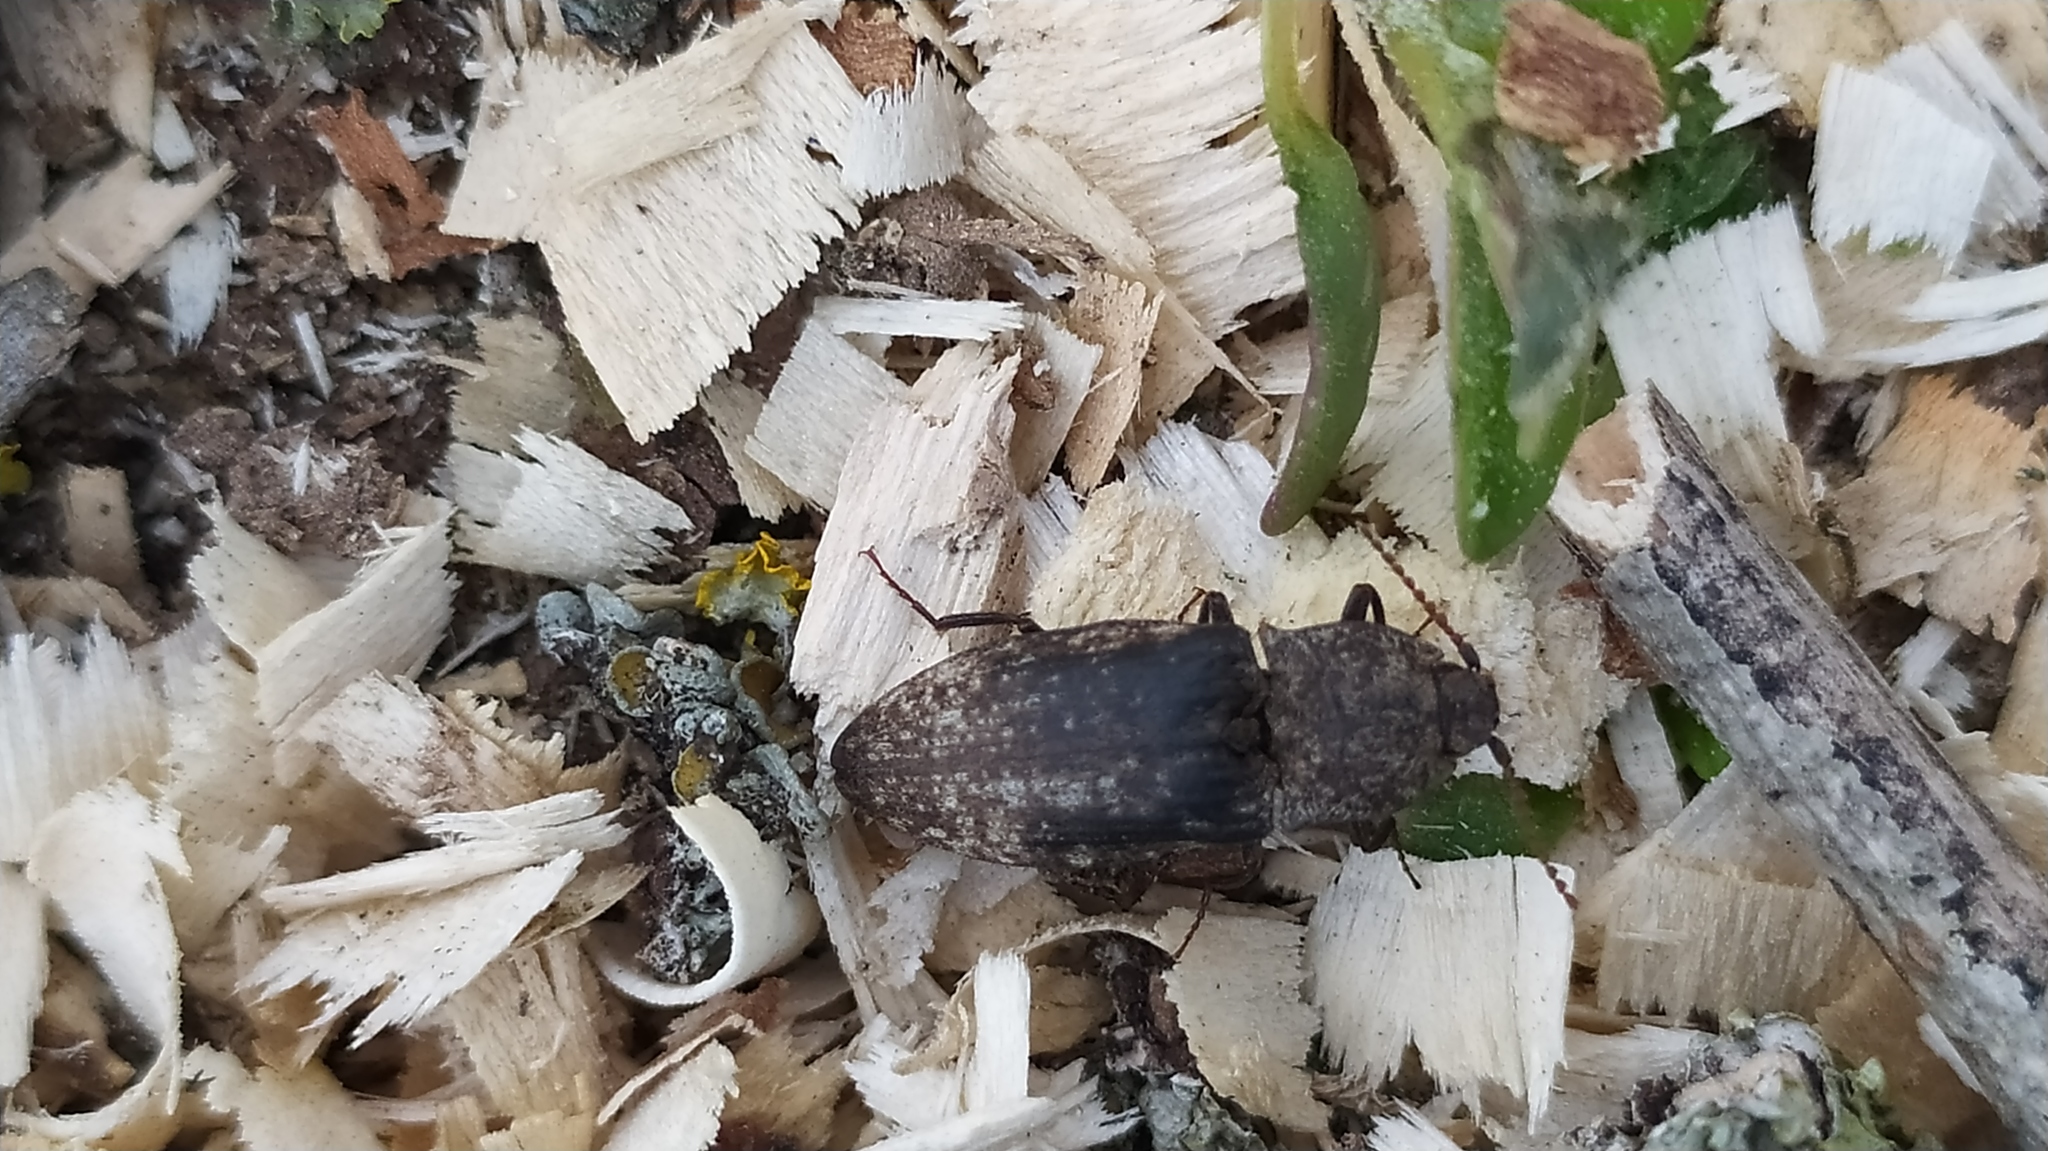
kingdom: Animalia
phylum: Arthropoda
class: Insecta
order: Coleoptera
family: Elateridae
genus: Agrypnus
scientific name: Agrypnus murinus
